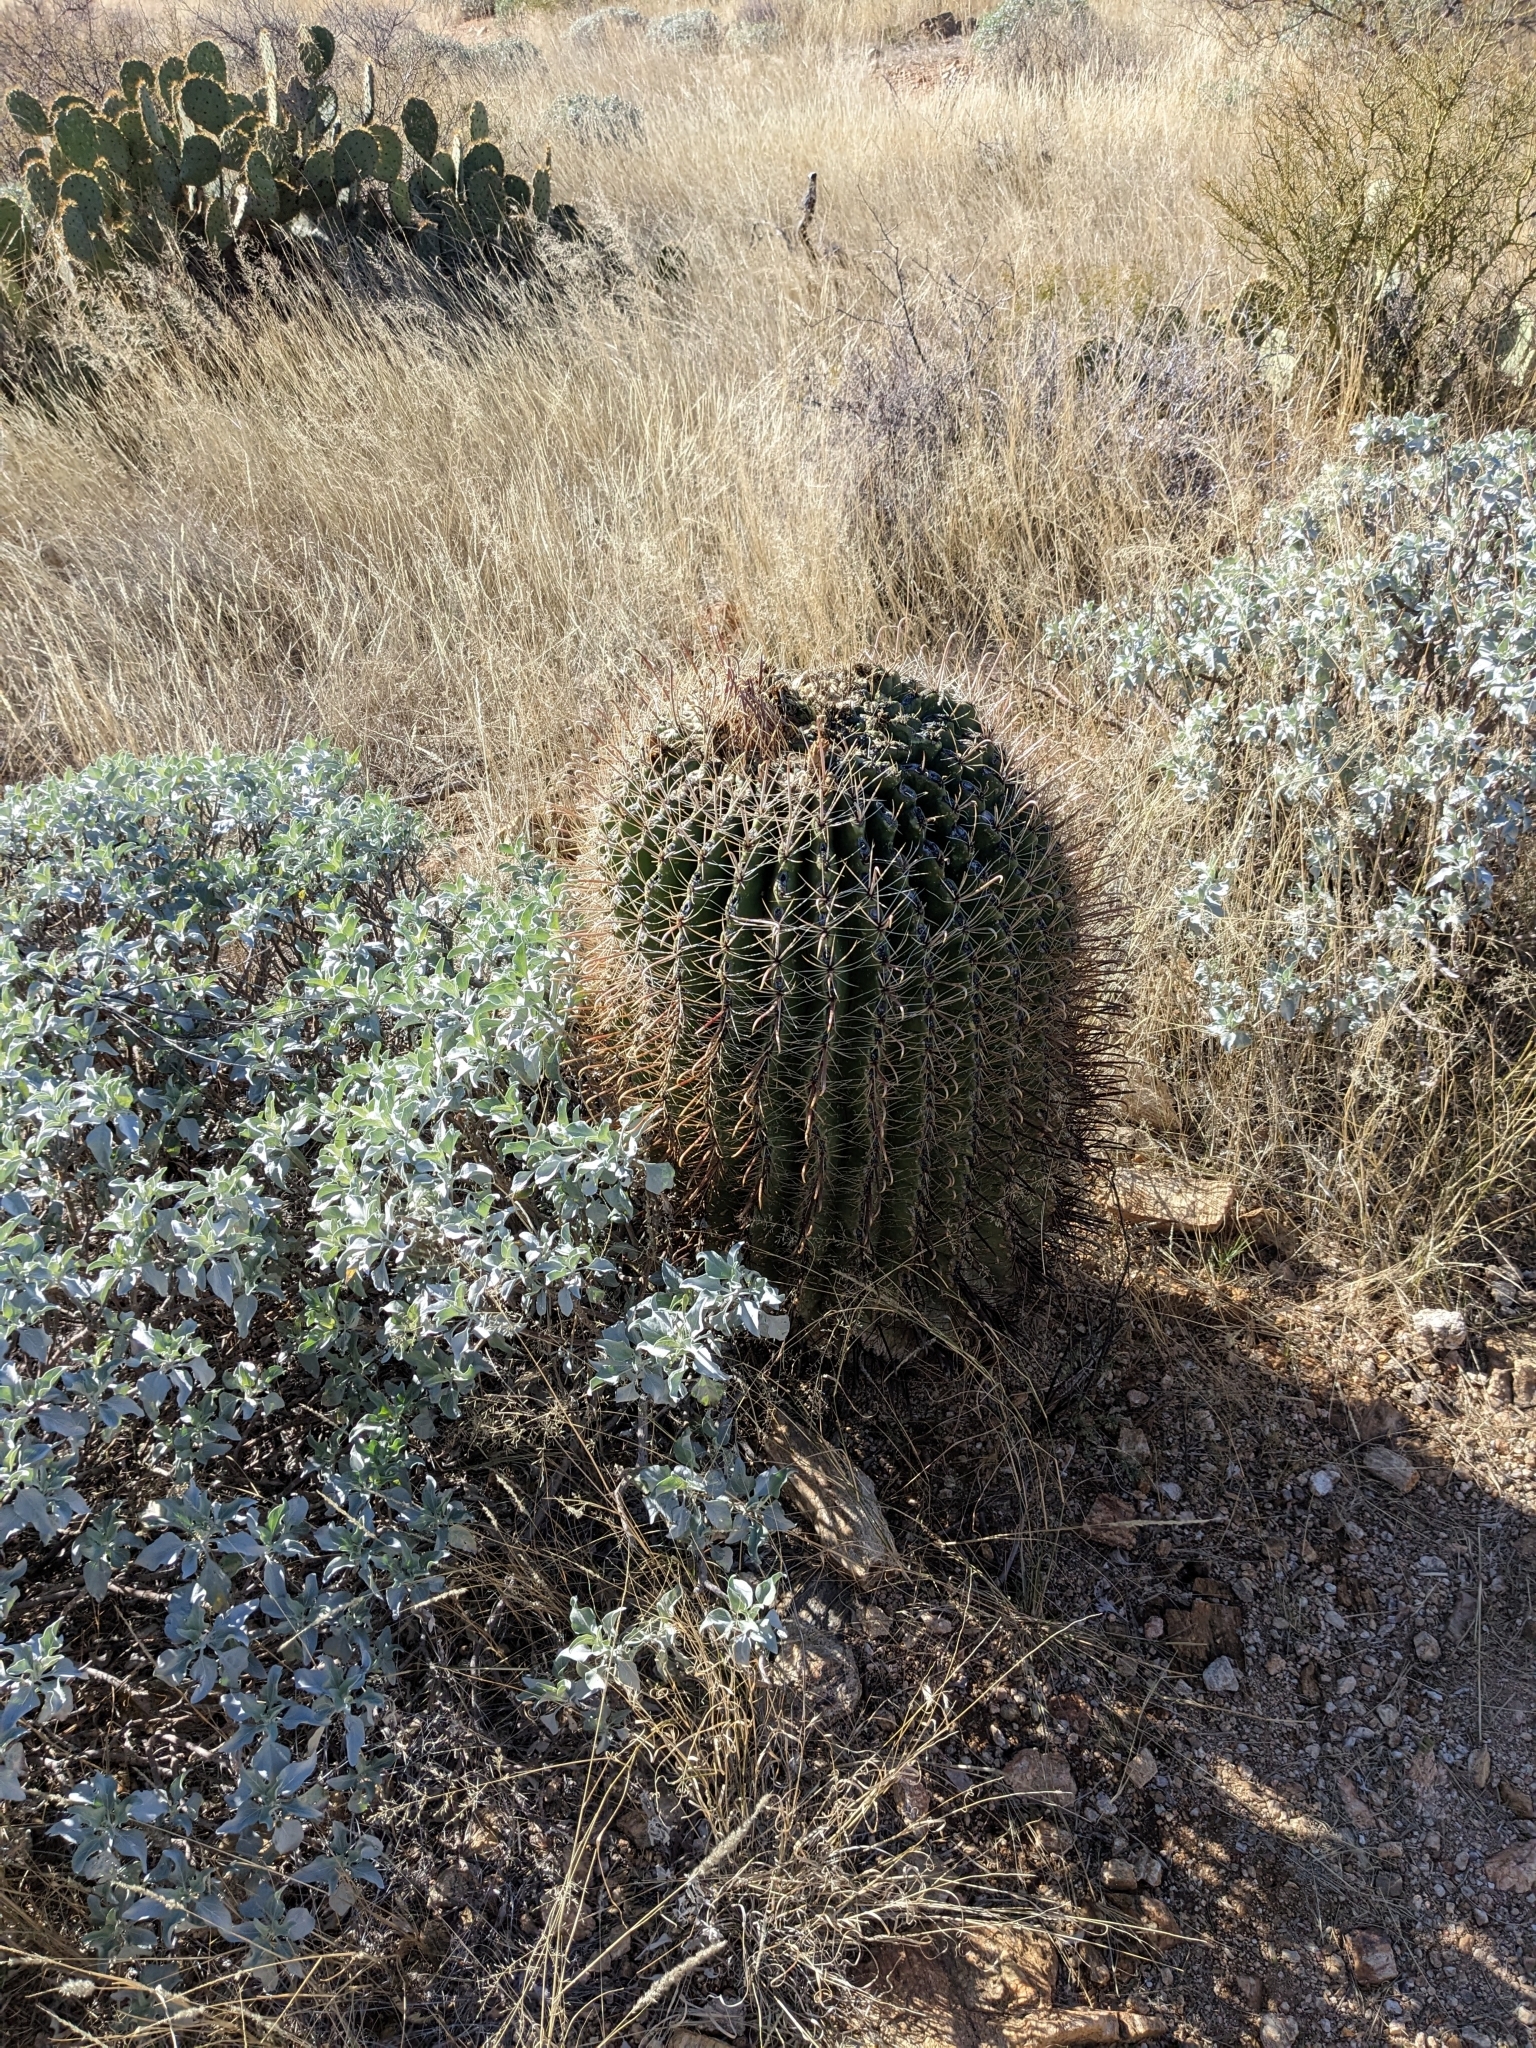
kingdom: Plantae
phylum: Tracheophyta
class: Magnoliopsida
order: Caryophyllales
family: Cactaceae
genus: Ferocactus
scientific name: Ferocactus wislizeni
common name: Candy barrel cactus
